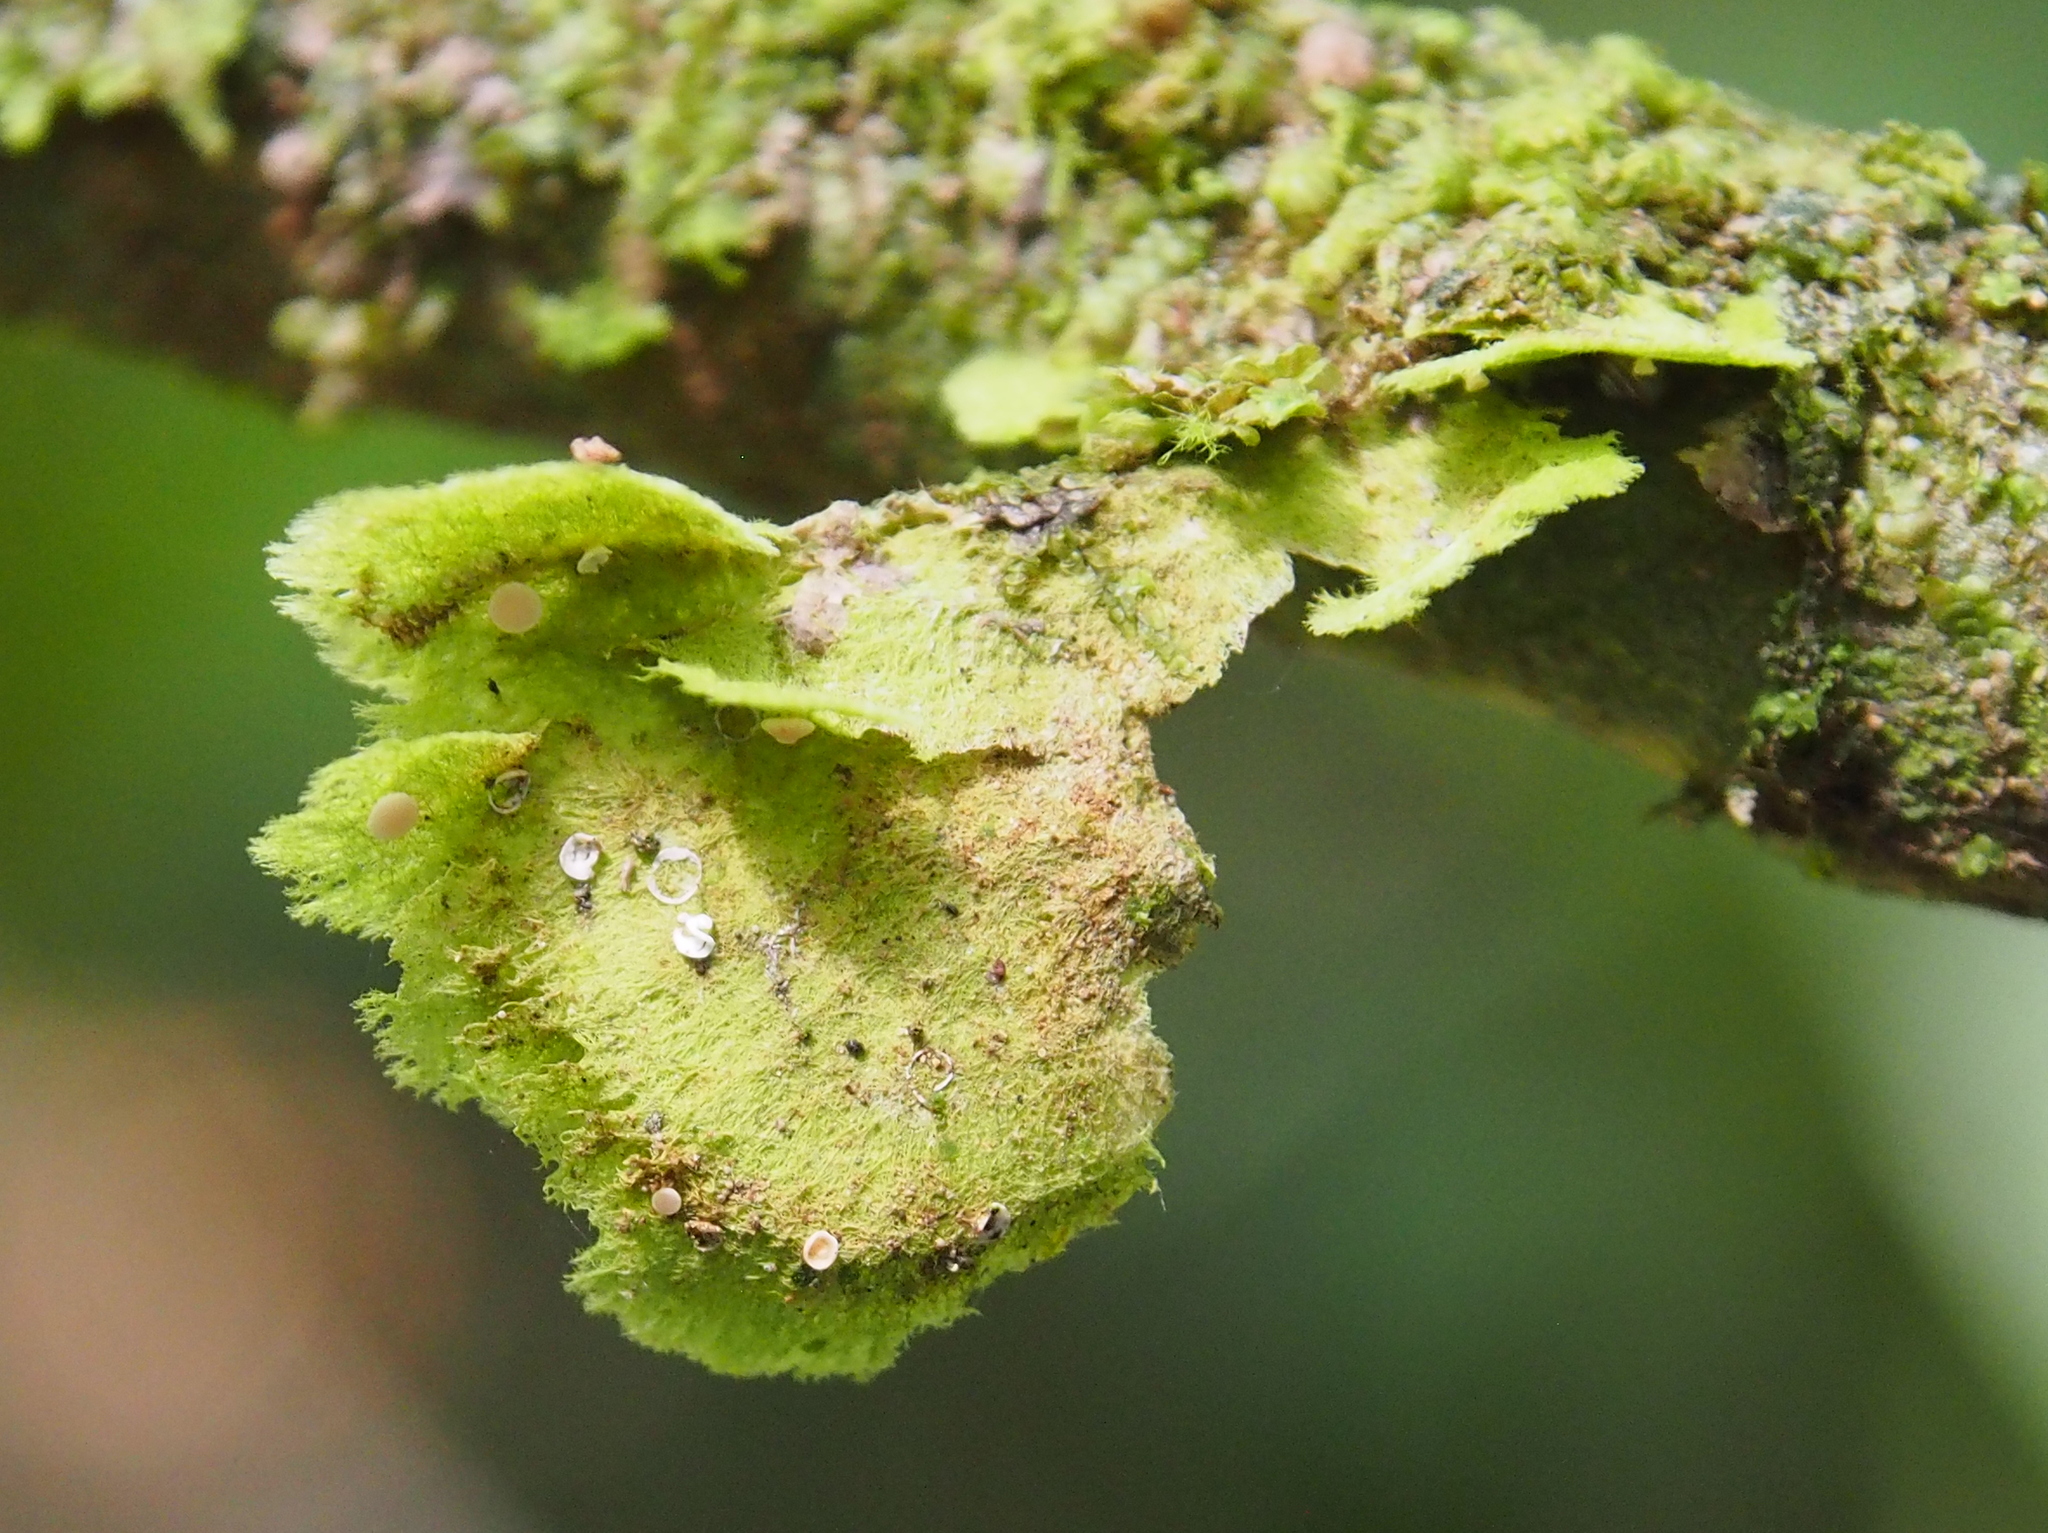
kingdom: Fungi
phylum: Ascomycota
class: Lecanoromycetes
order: Ostropales
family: Coenogoniaceae
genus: Coenogonium
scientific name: Coenogonium linkii
